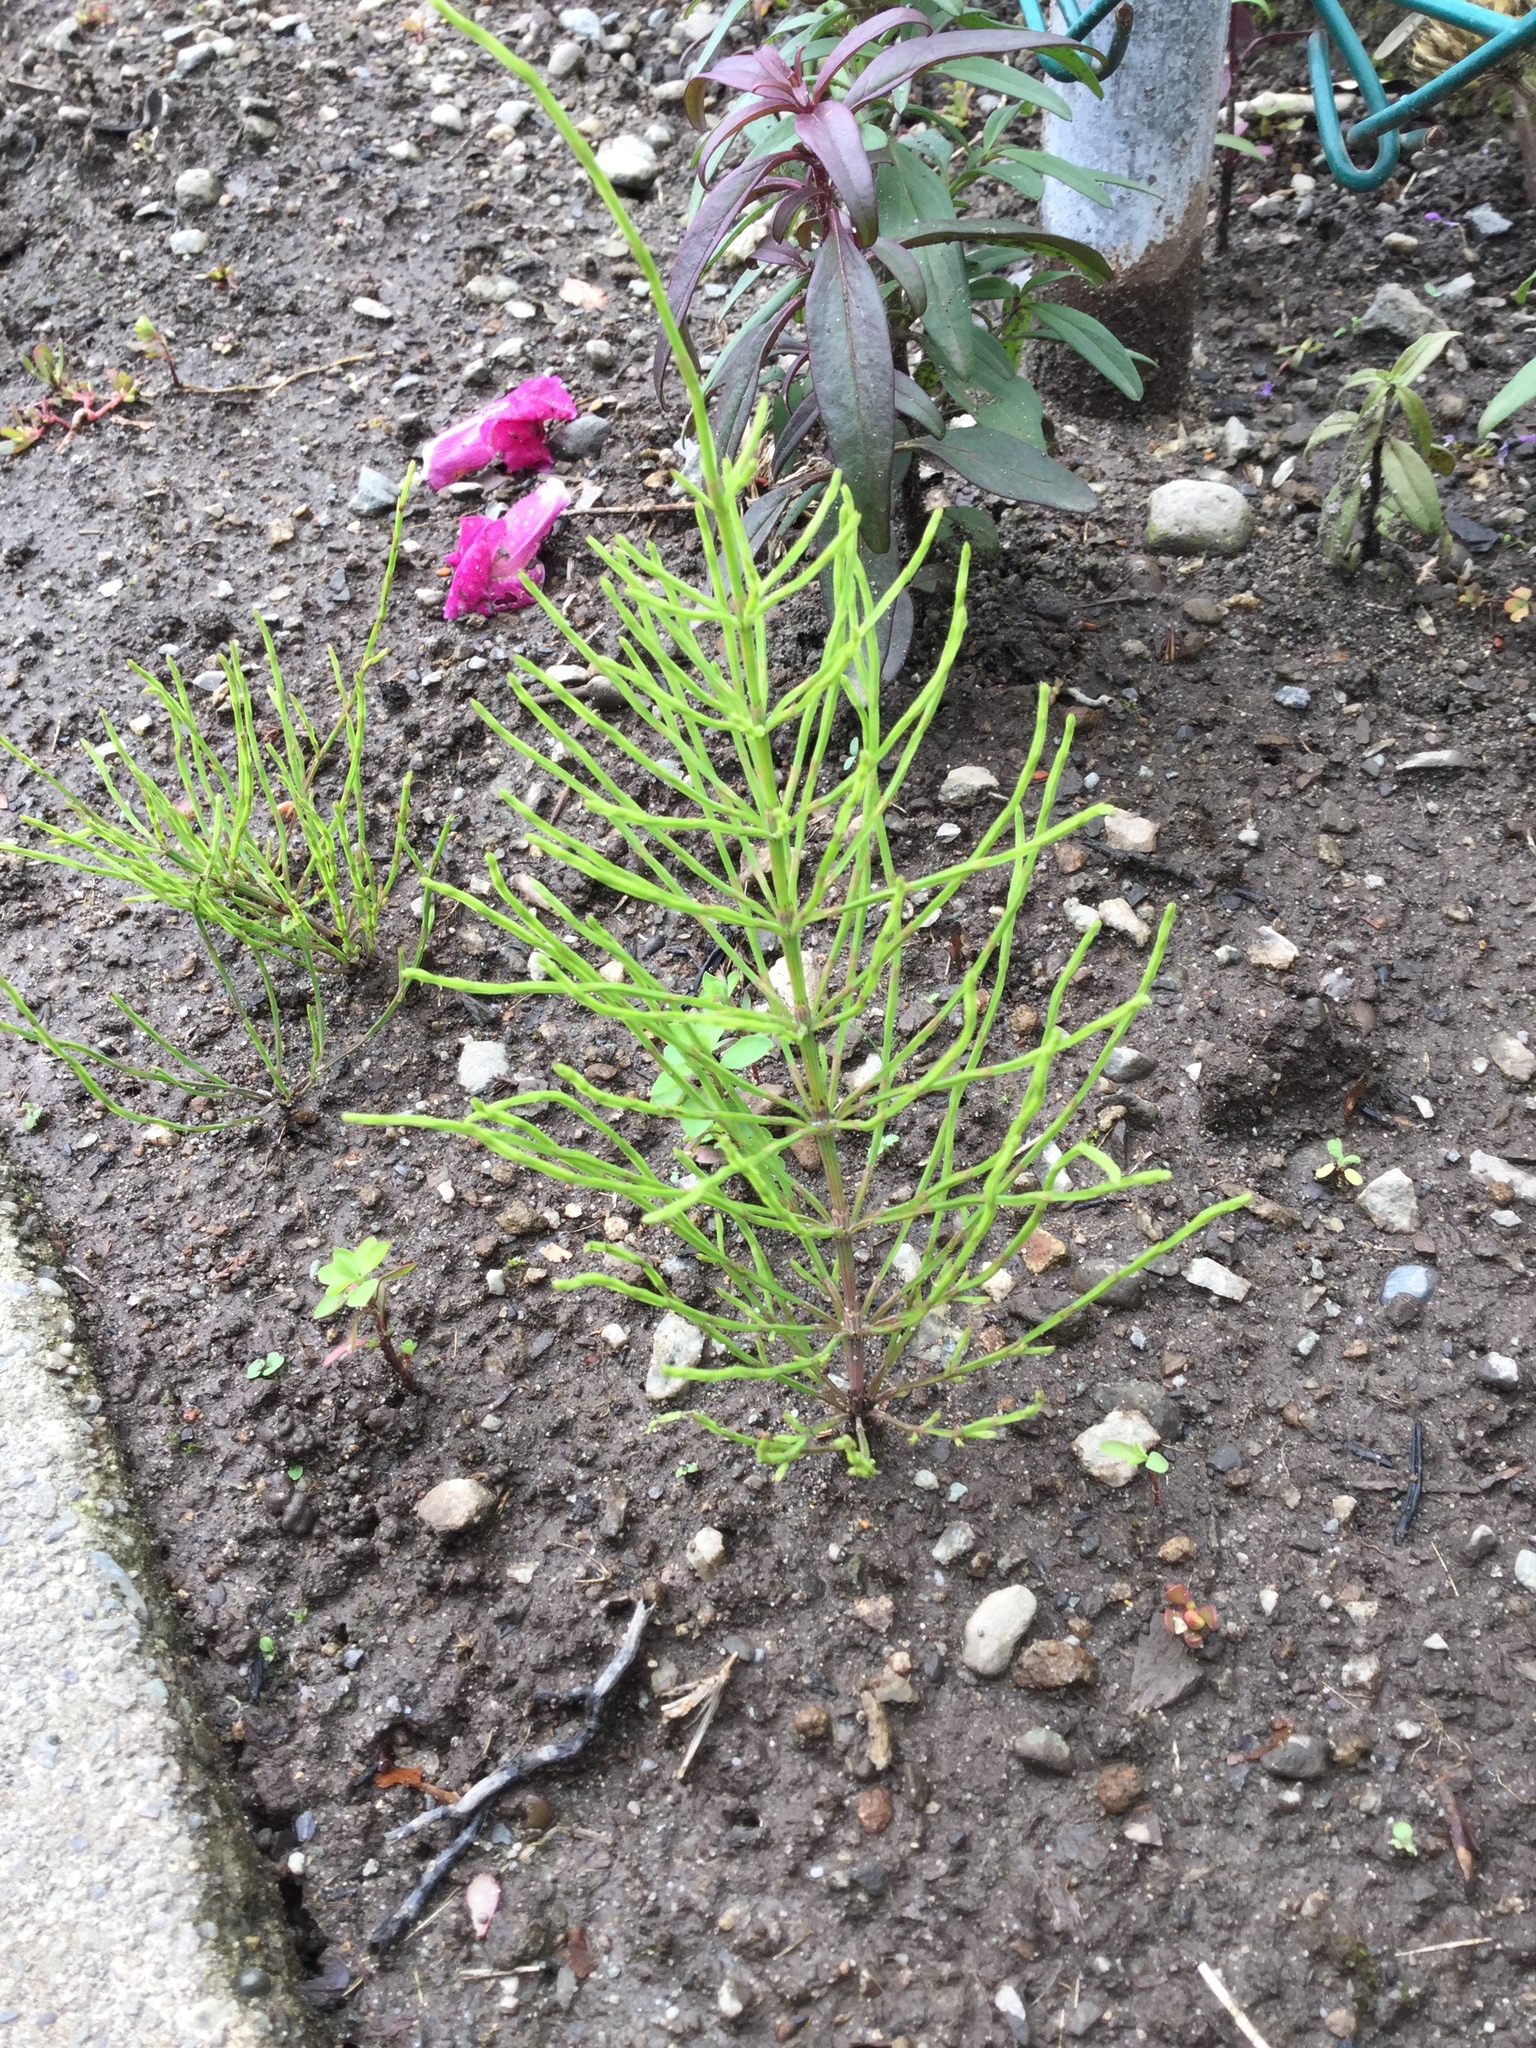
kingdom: Plantae
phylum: Tracheophyta
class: Polypodiopsida
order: Equisetales
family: Equisetaceae
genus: Equisetum
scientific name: Equisetum arvense
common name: Field horsetail
